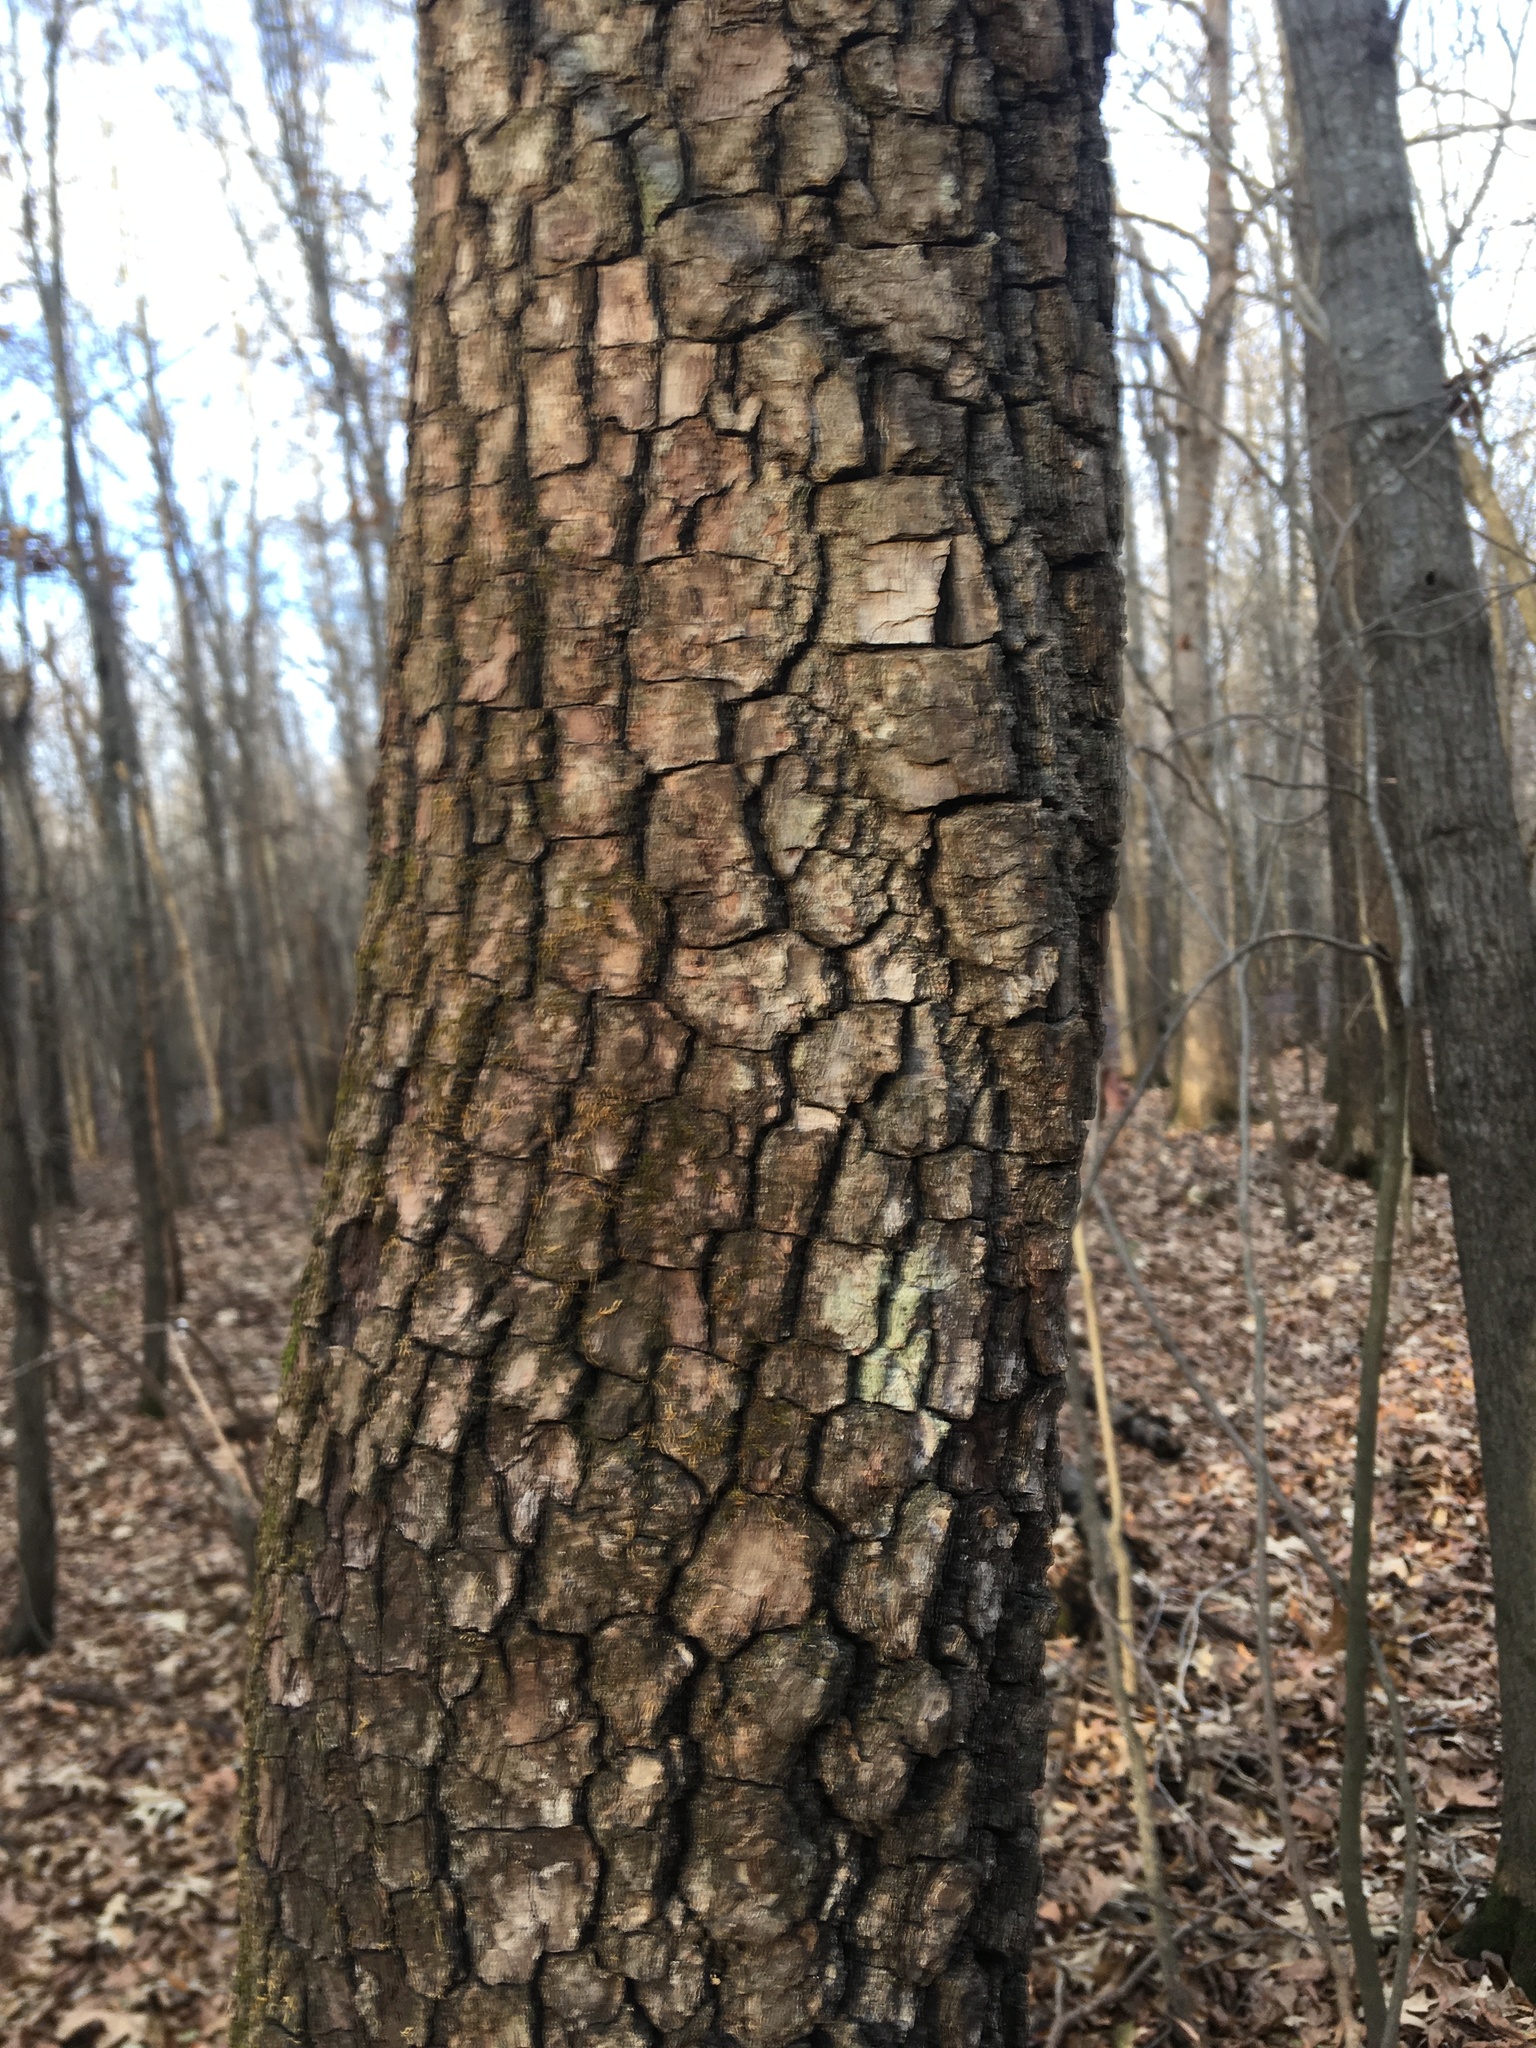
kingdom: Plantae
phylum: Tracheophyta
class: Magnoliopsida
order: Ericales
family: Ebenaceae
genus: Diospyros
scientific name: Diospyros virginiana
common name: Persimmon
